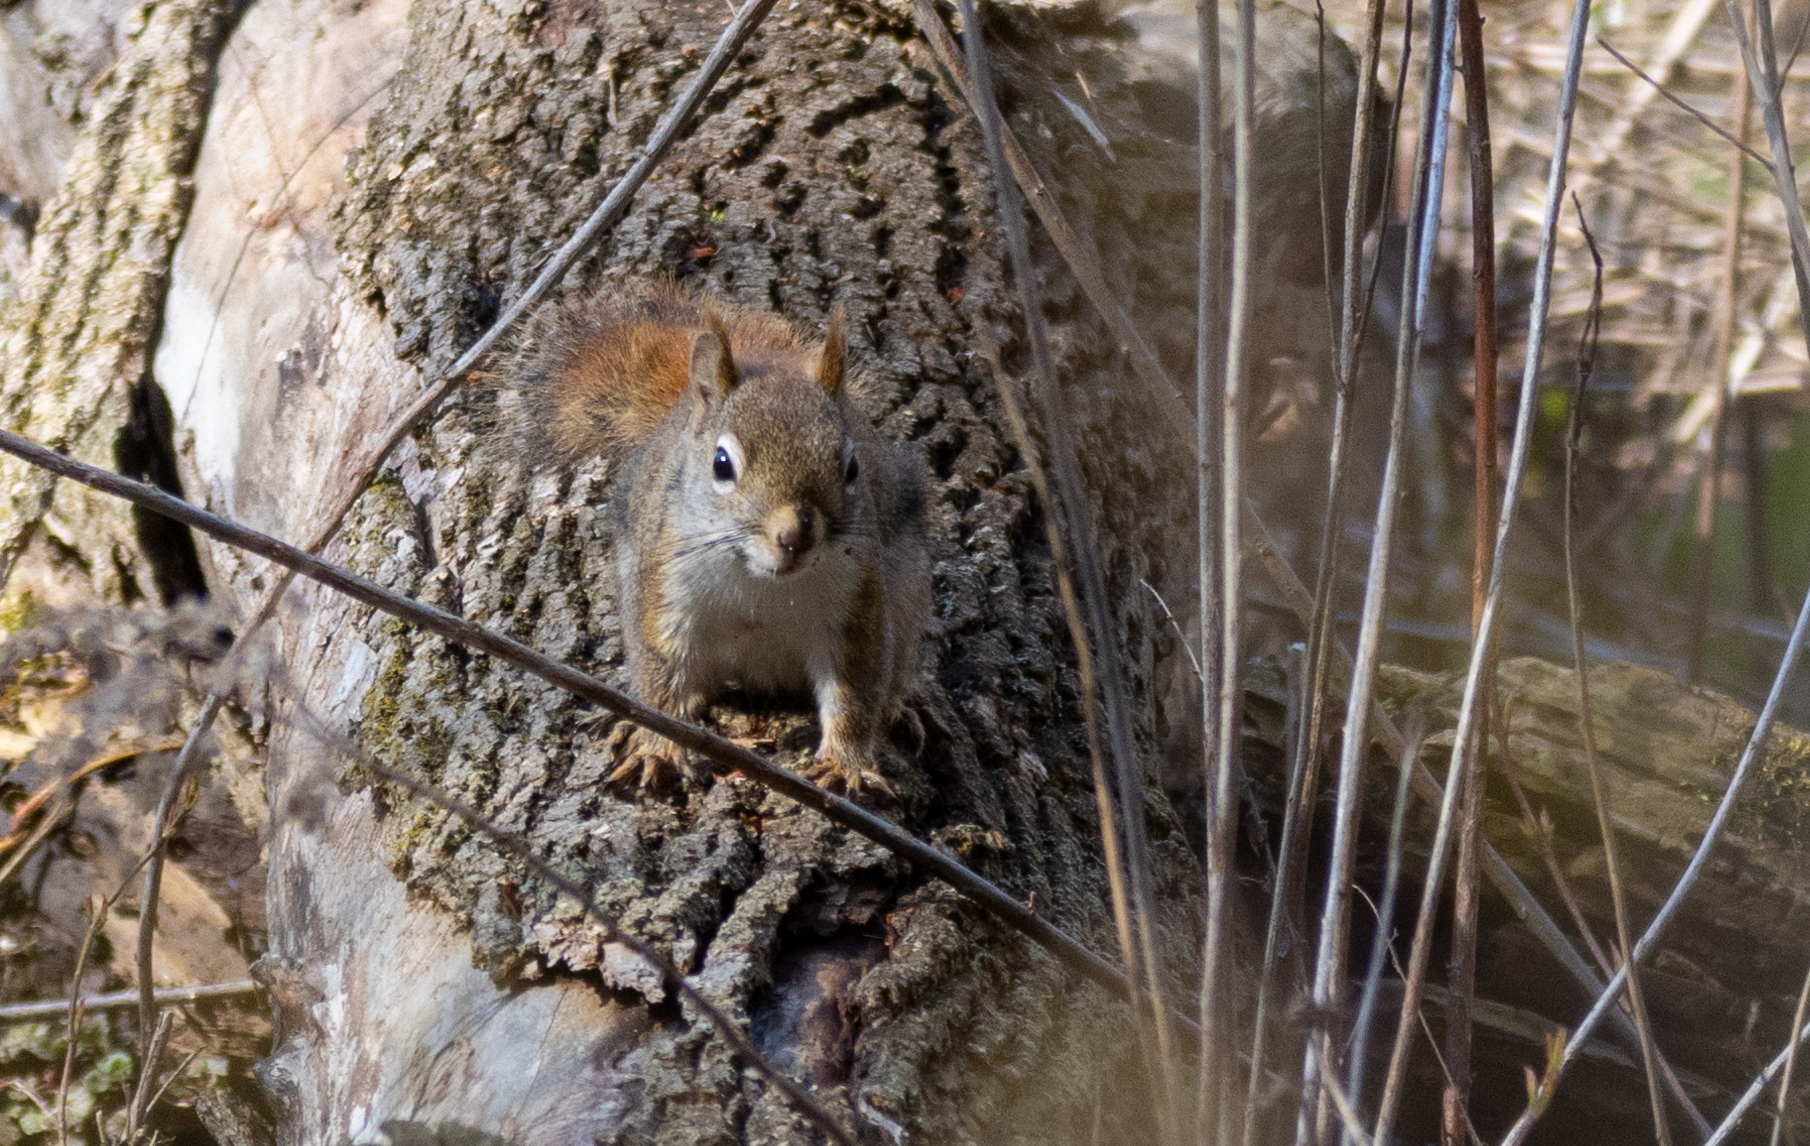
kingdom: Animalia
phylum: Chordata
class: Mammalia
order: Rodentia
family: Sciuridae
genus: Tamiasciurus
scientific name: Tamiasciurus hudsonicus
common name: Red squirrel
